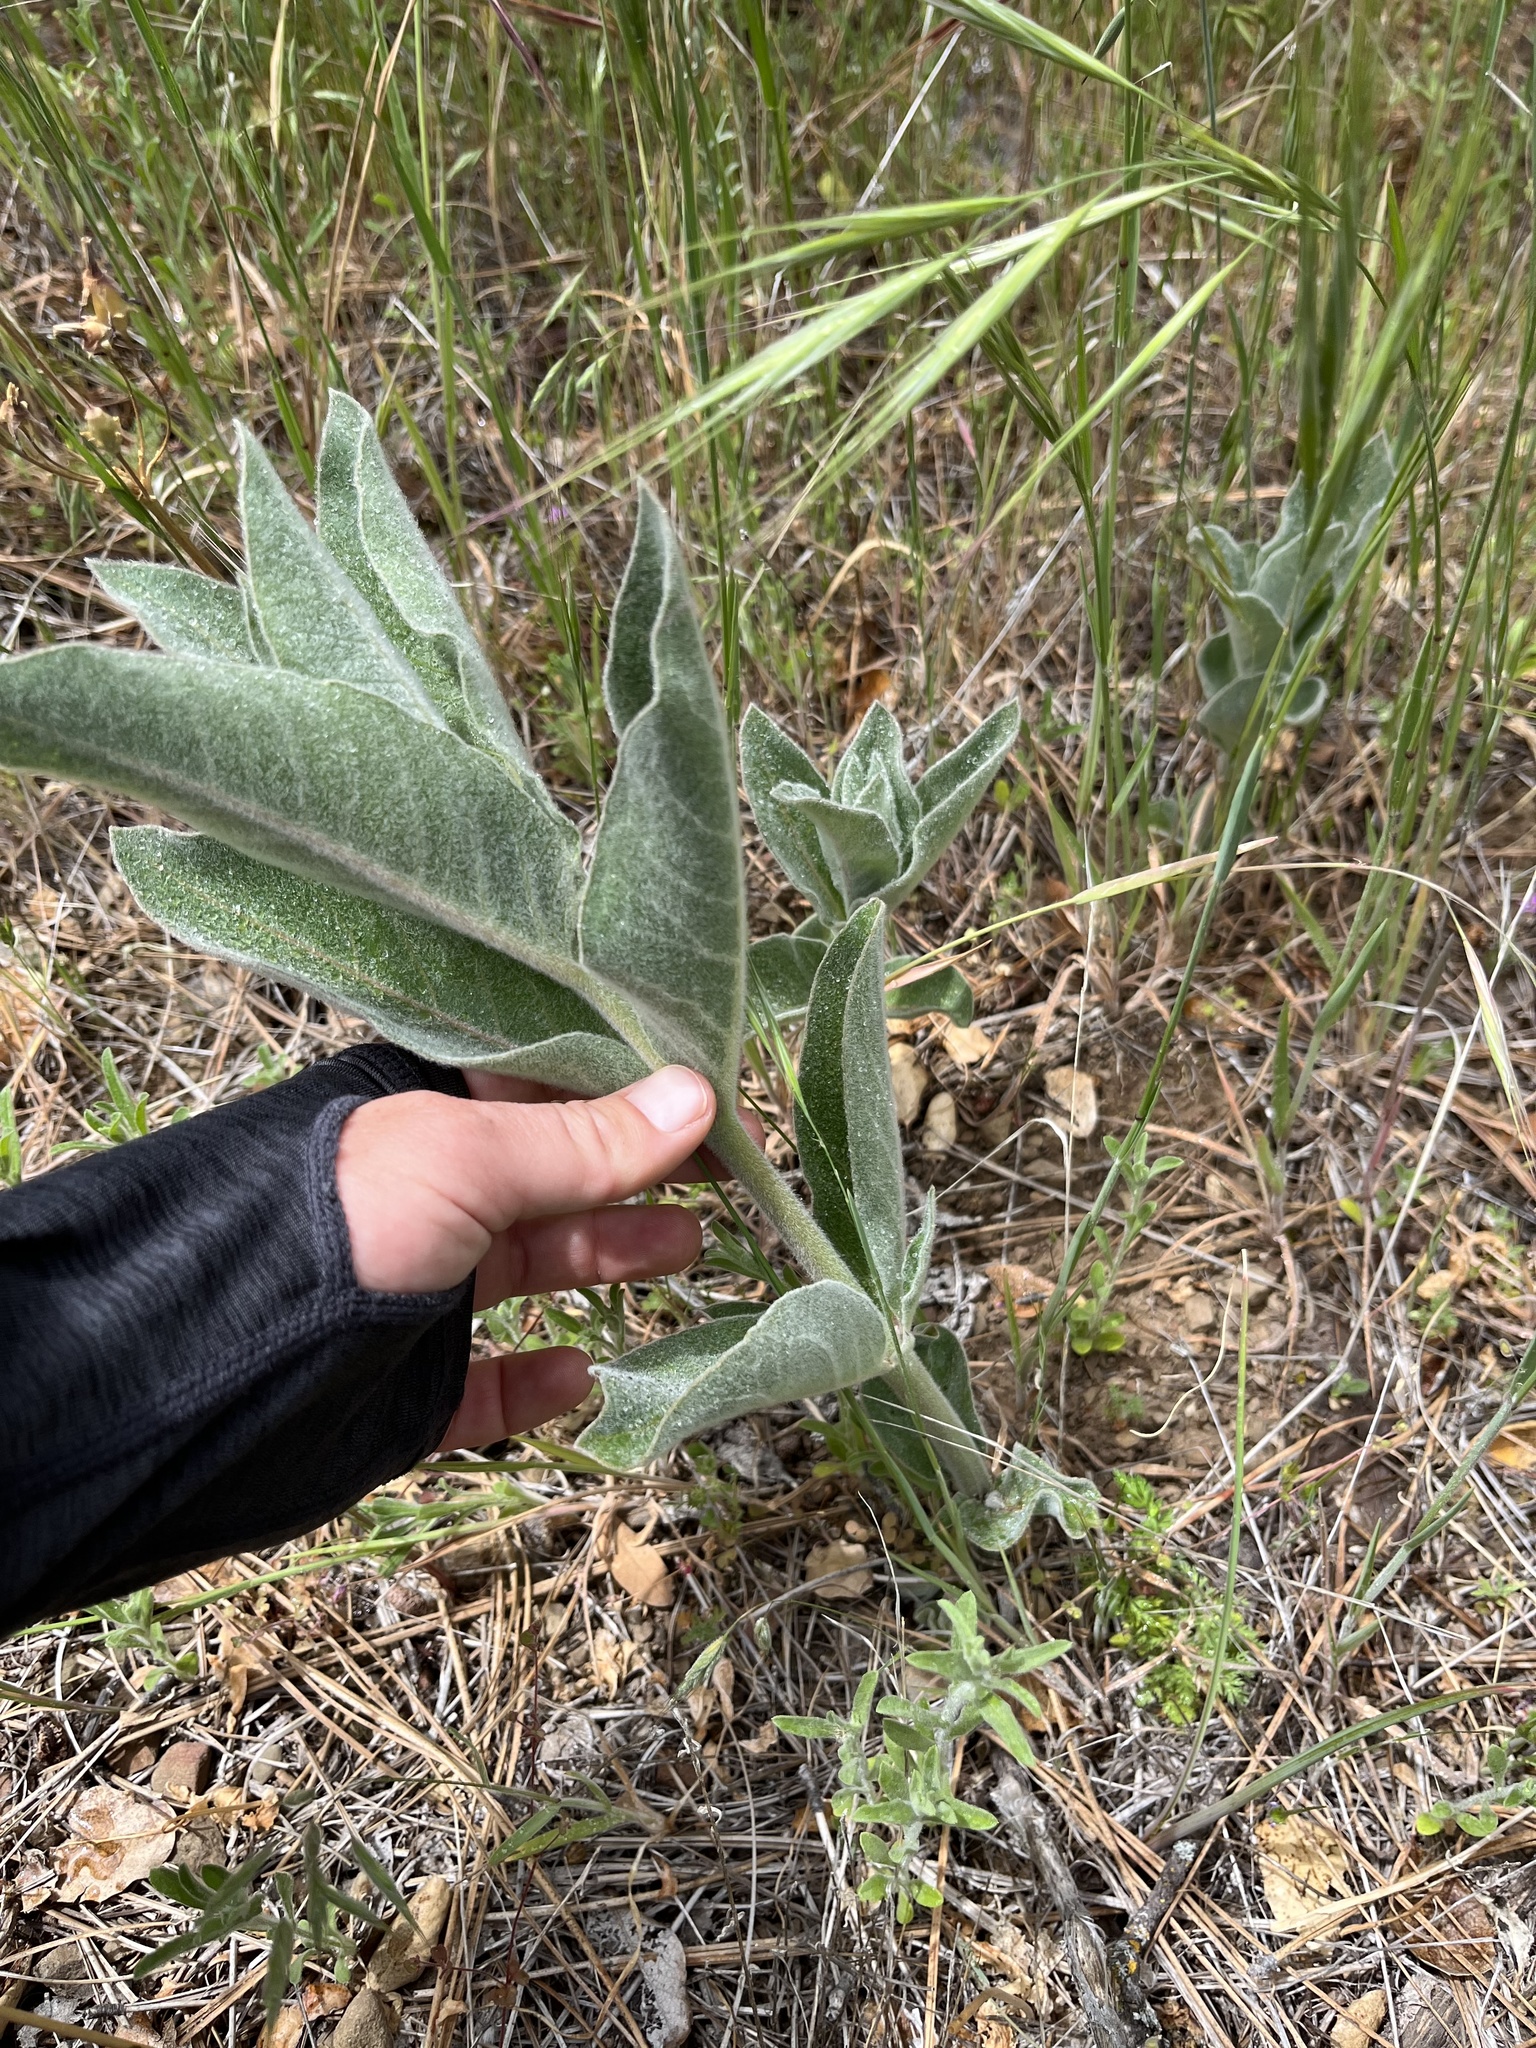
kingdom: Plantae
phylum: Tracheophyta
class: Magnoliopsida
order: Gentianales
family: Apocynaceae
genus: Asclepias
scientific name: Asclepias eriocarpa
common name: Indian milkweed
